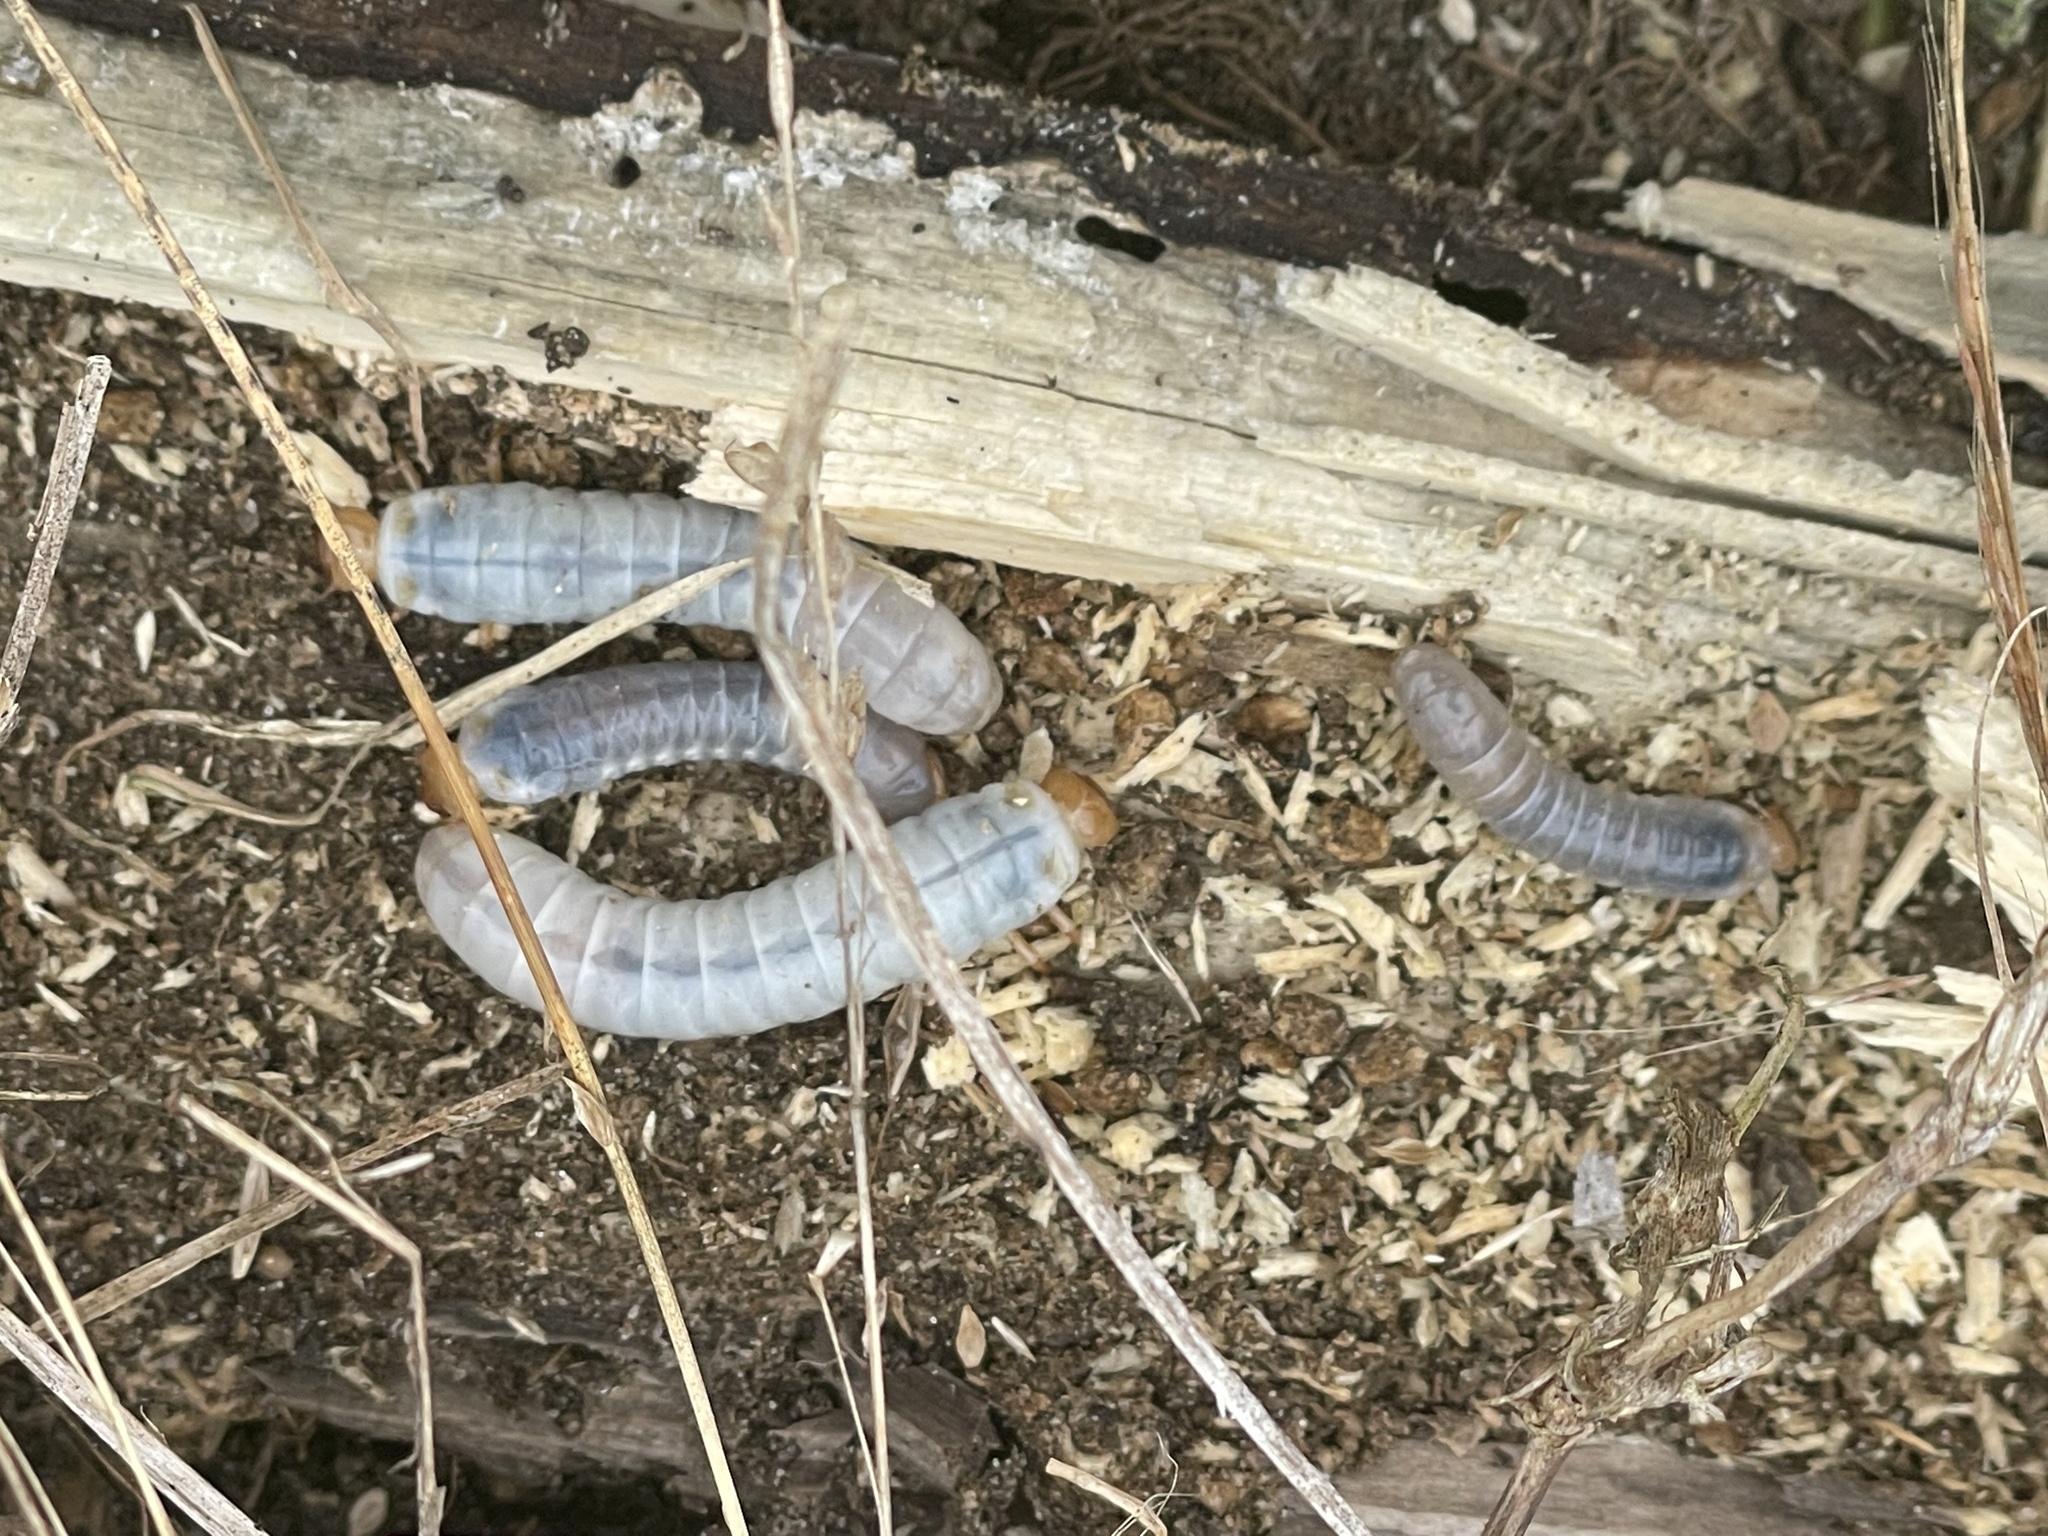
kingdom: Animalia
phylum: Arthropoda
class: Insecta
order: Coleoptera
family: Passalidae
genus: Odontotaenius
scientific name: Odontotaenius disjunctus
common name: Patent leather beetle
